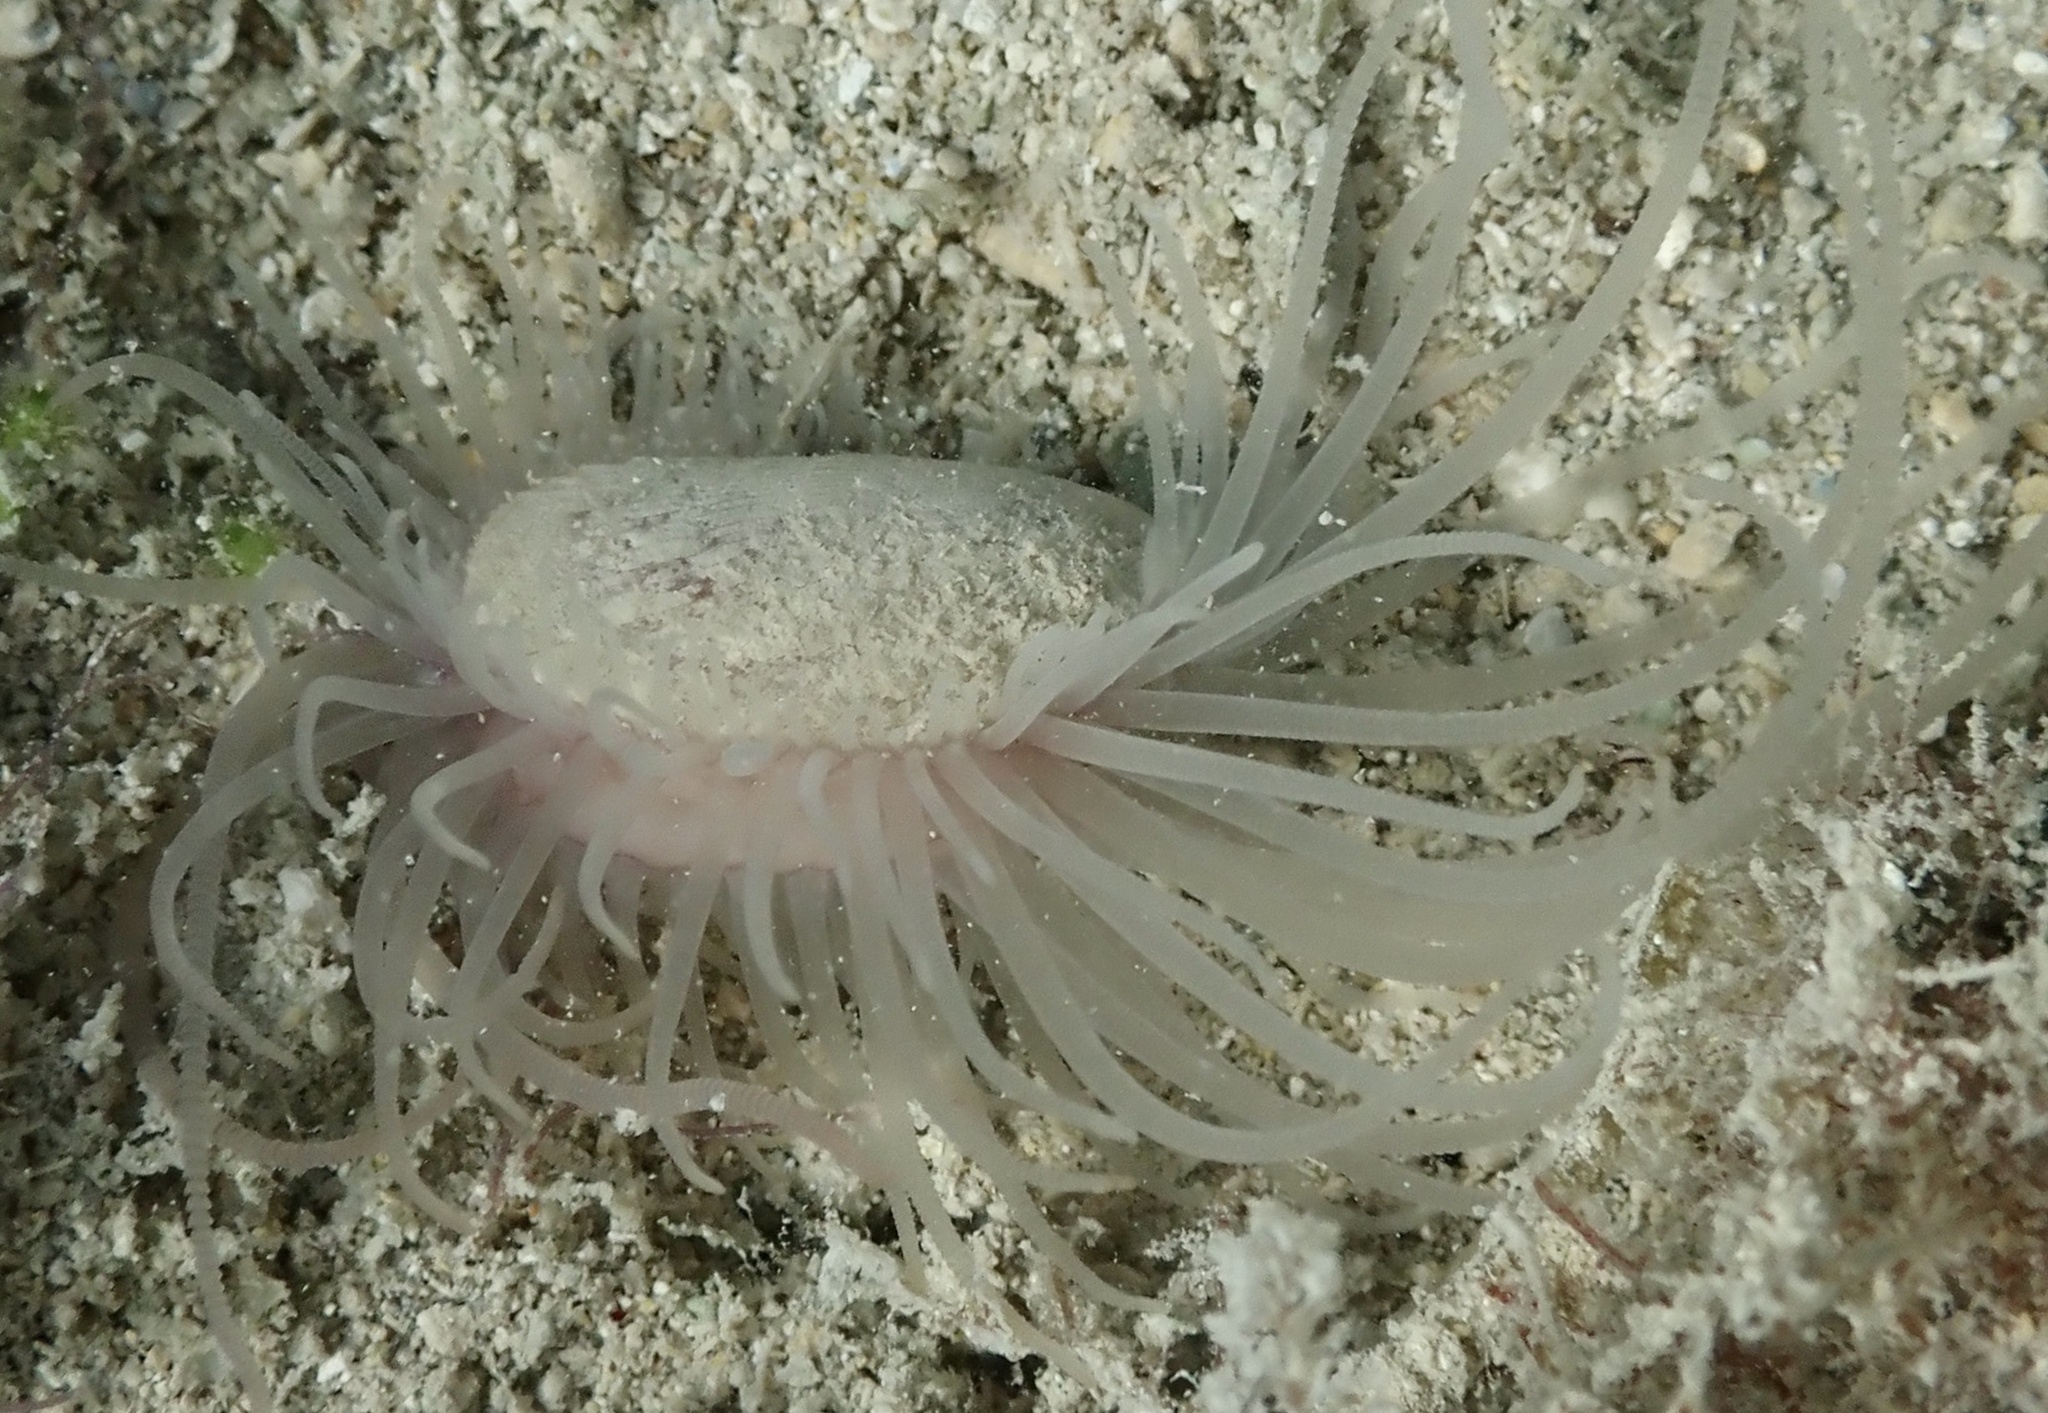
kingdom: Animalia
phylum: Mollusca
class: Bivalvia
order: Limida
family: Limidae
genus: Limaria
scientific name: Limaria pellucida
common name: Antillean fileclam
